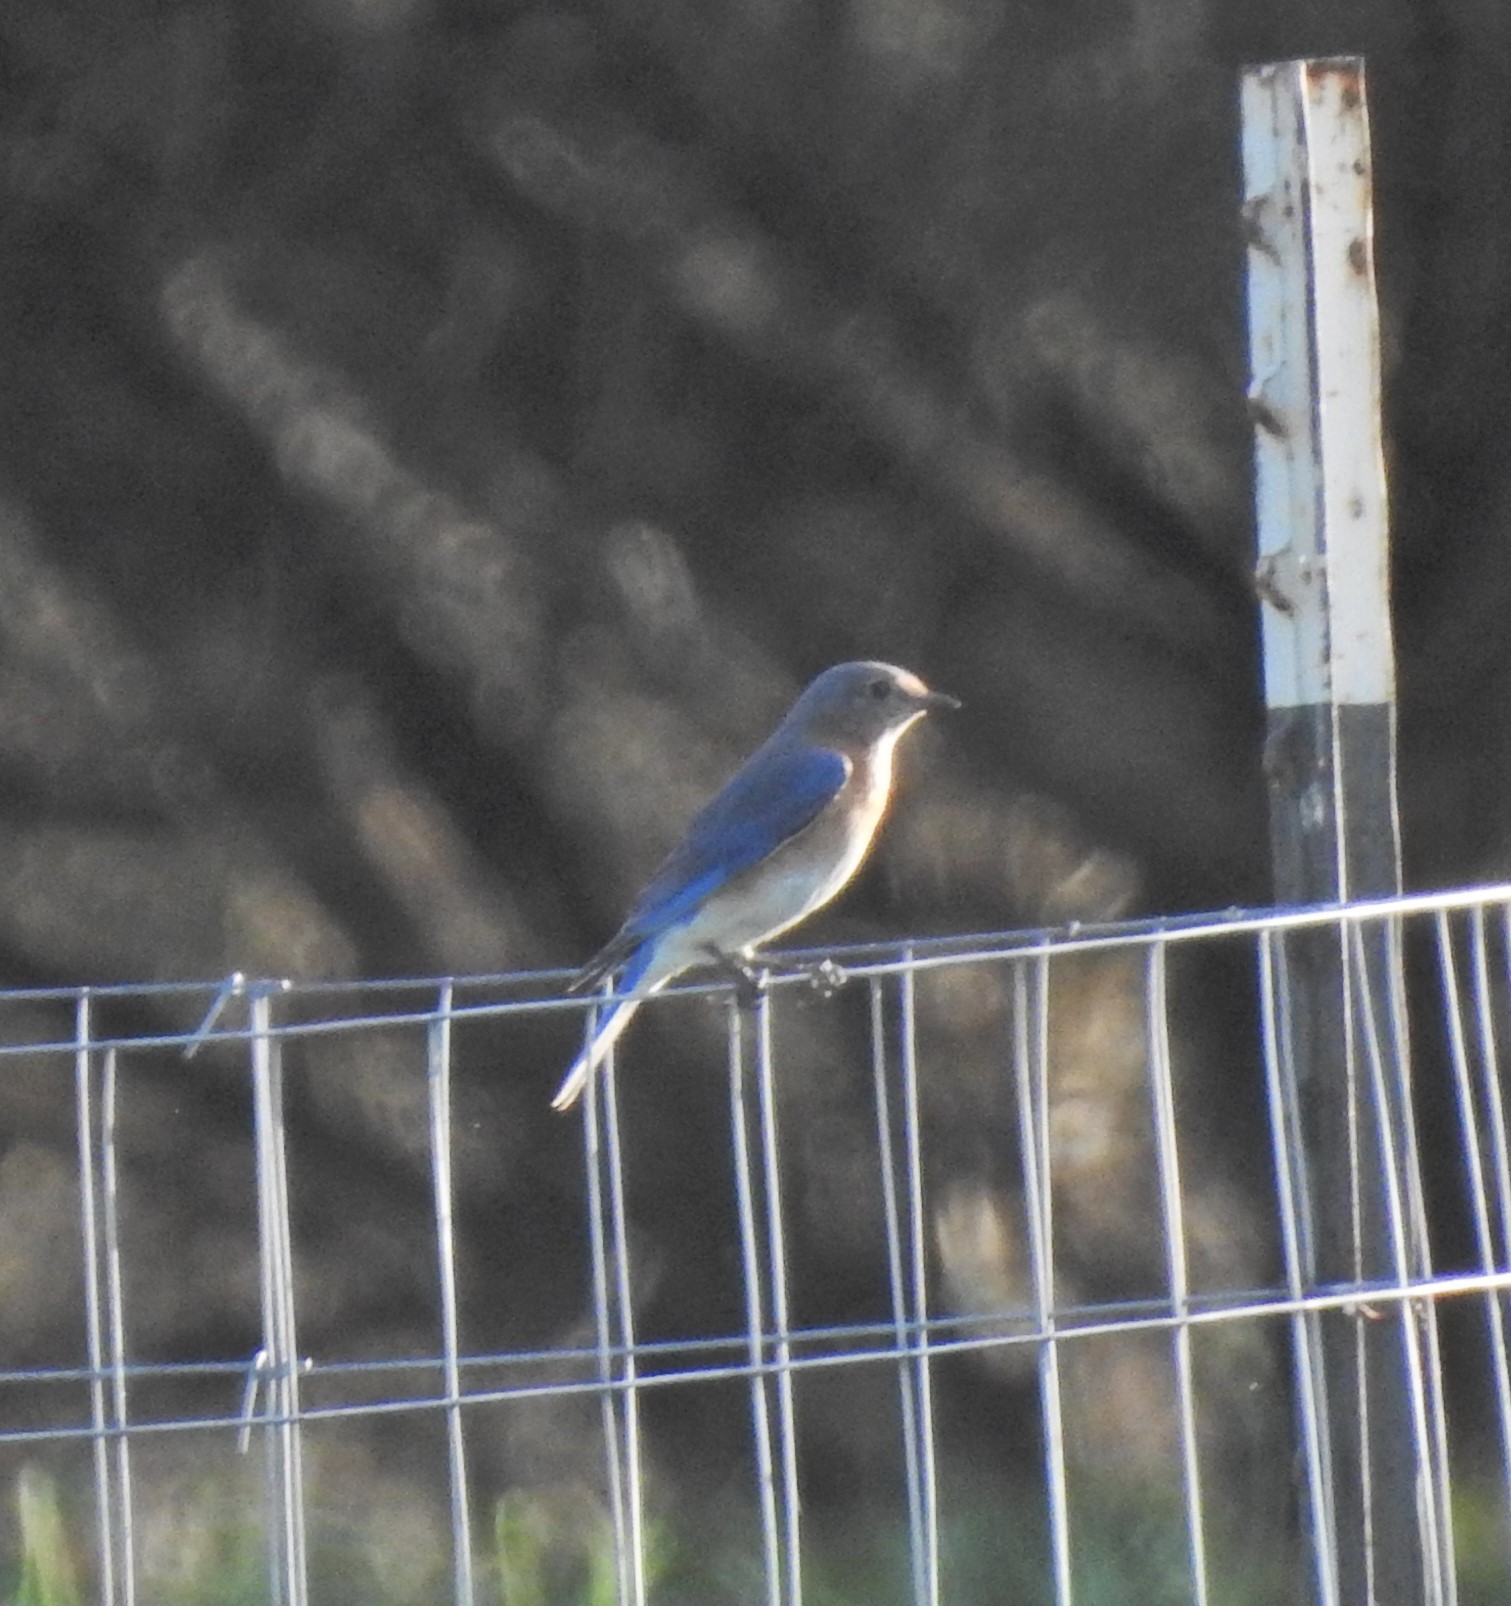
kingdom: Animalia
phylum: Chordata
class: Aves
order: Passeriformes
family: Turdidae
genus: Sialia
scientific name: Sialia sialis
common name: Eastern bluebird
